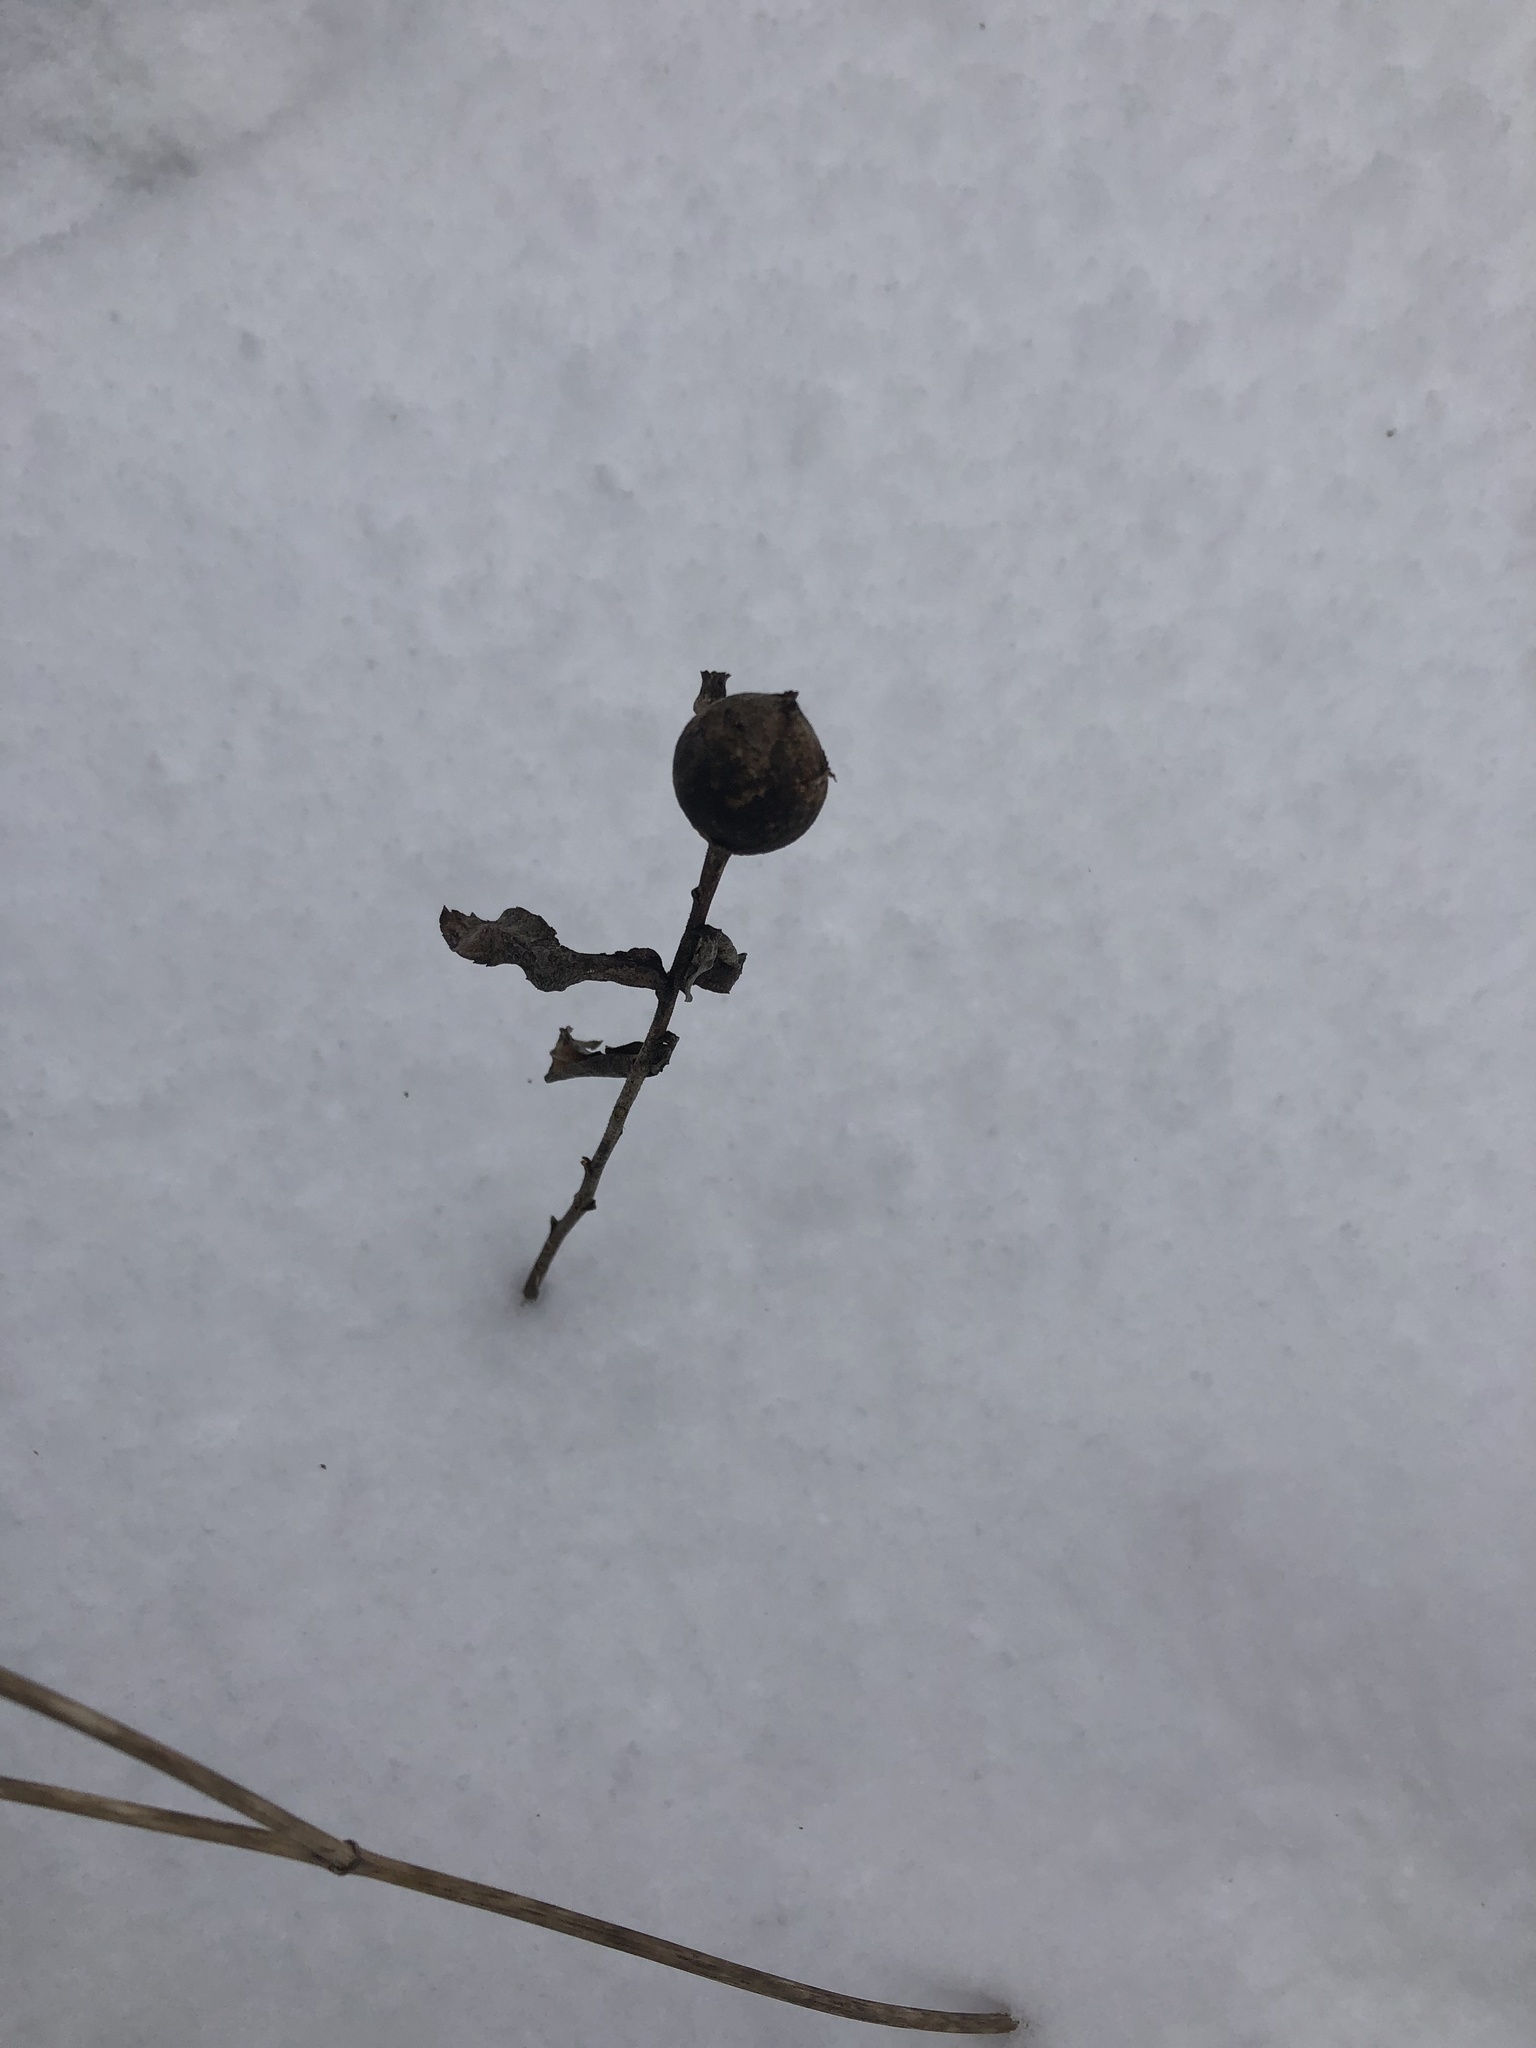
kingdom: Animalia
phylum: Arthropoda
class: Insecta
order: Diptera
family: Tephritidae
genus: Eurosta
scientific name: Eurosta solidaginis
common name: Goldenrod gall fly
